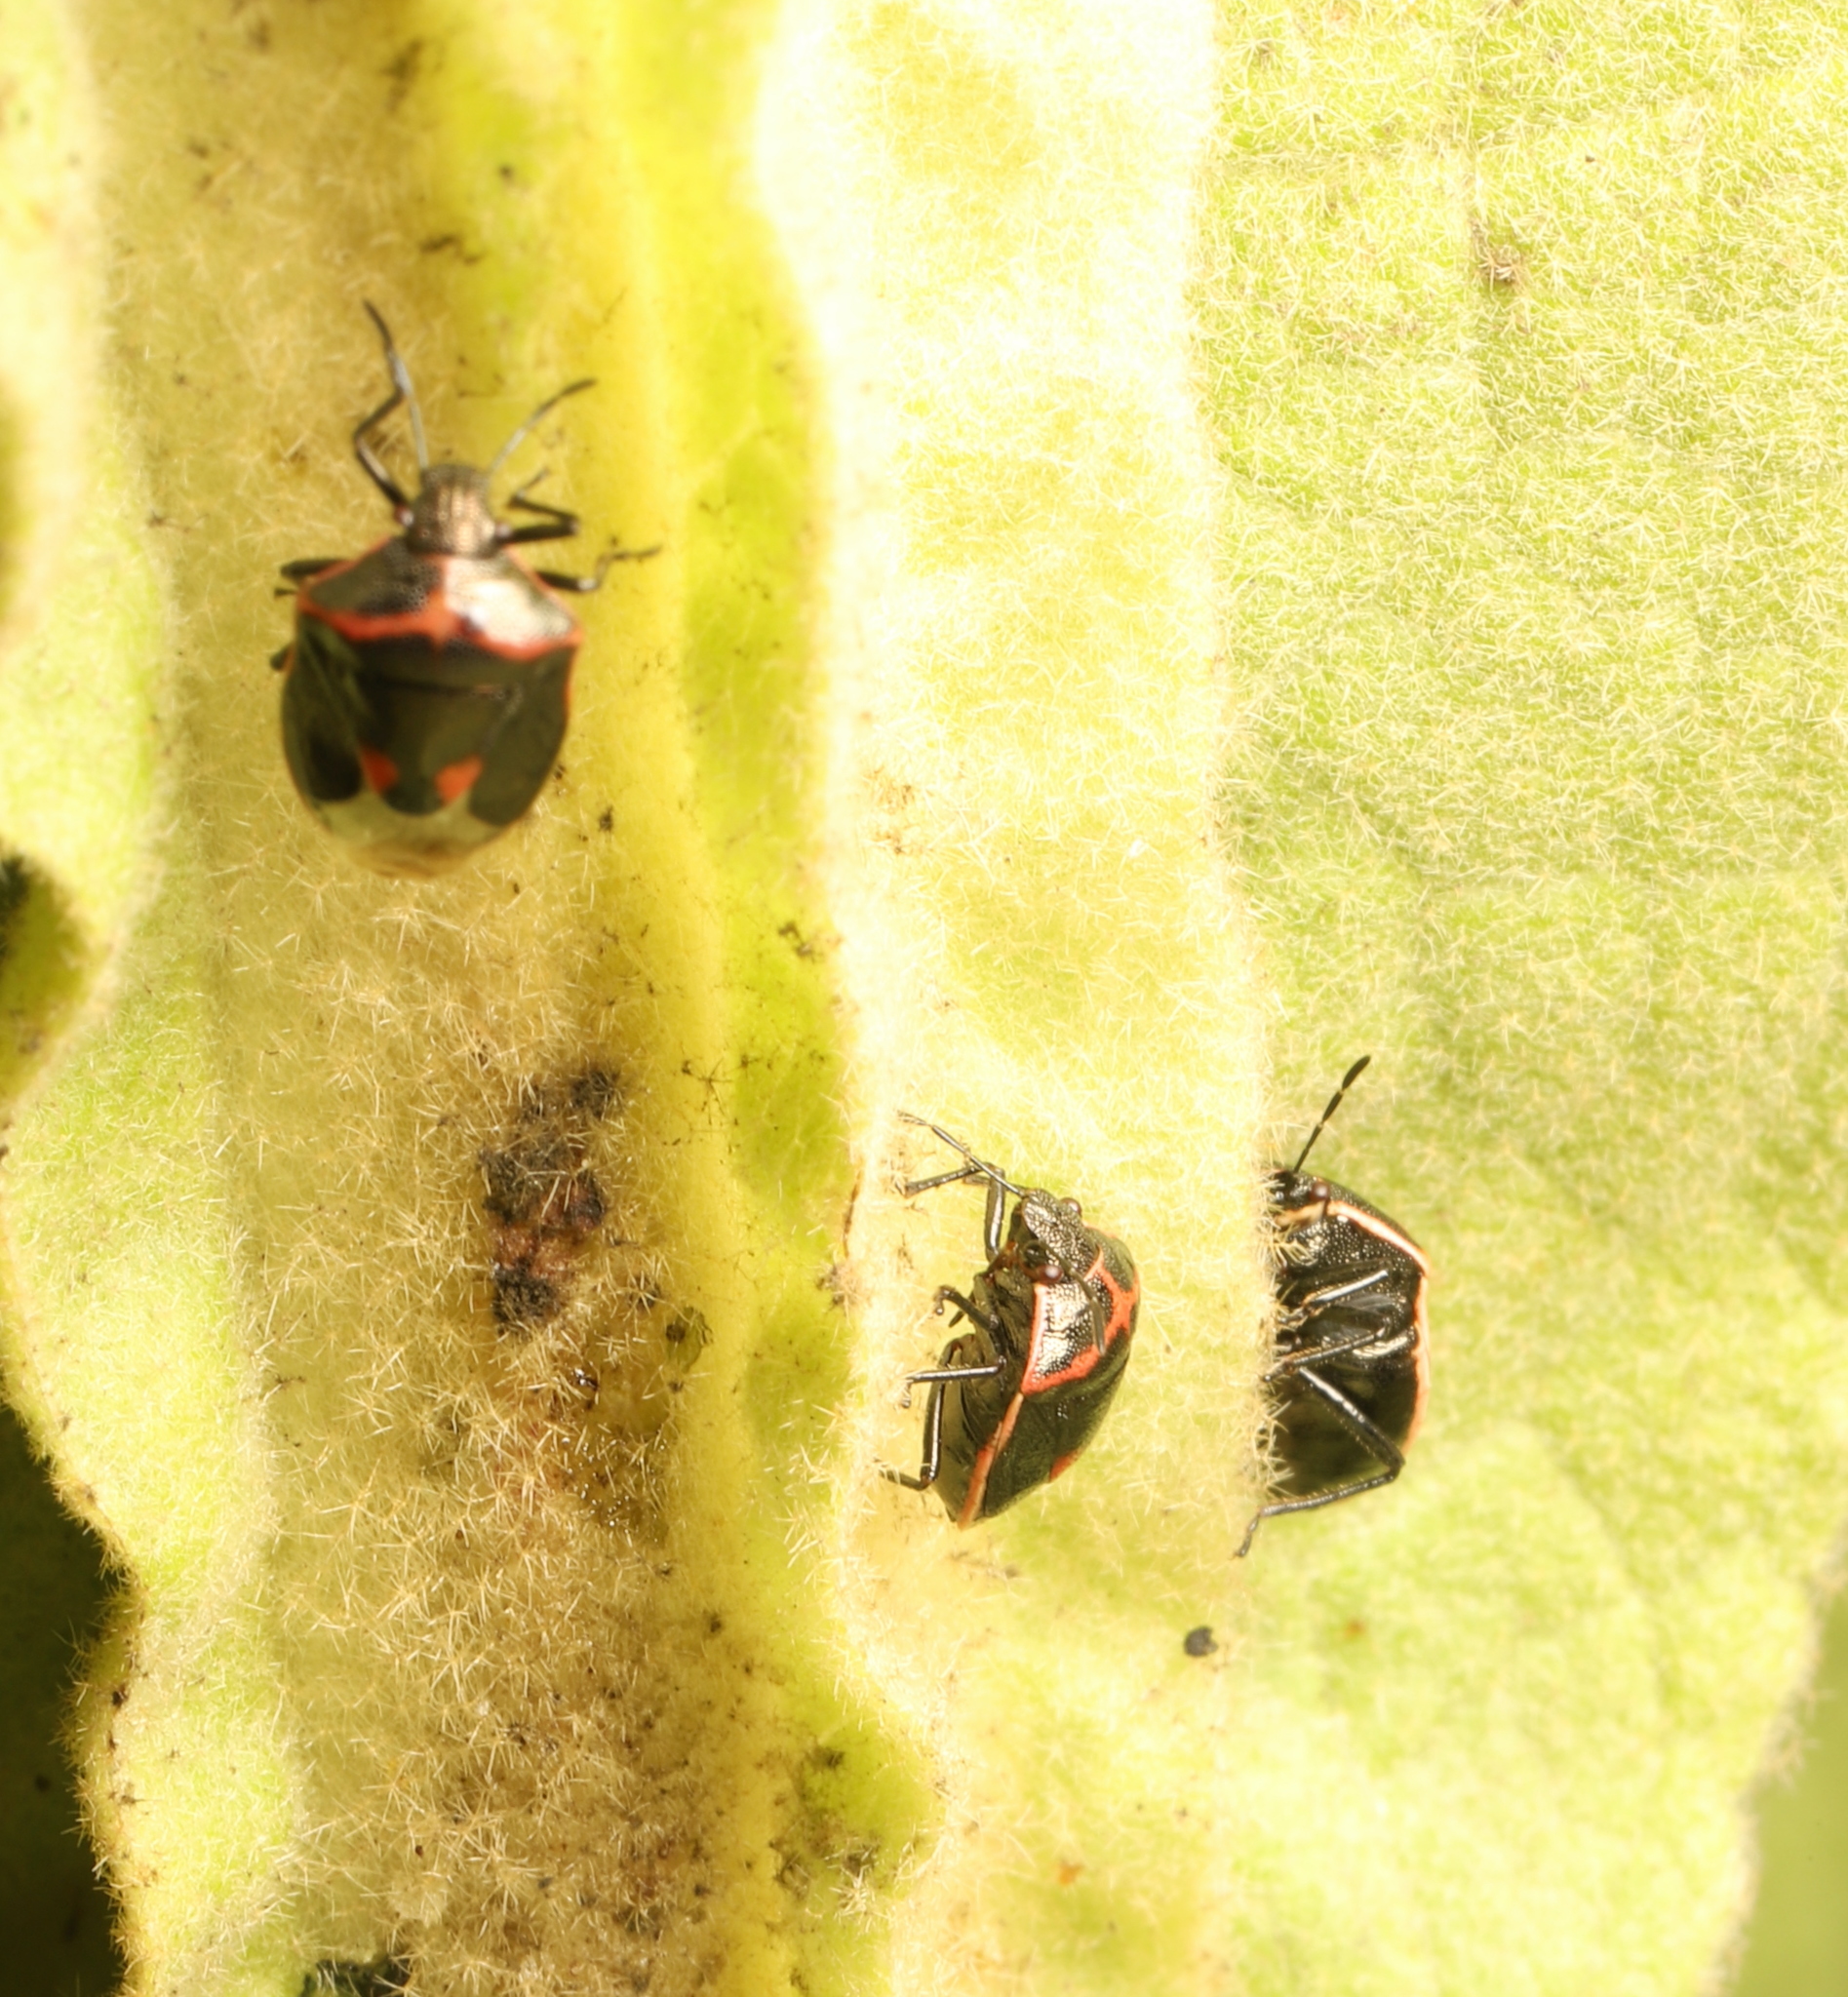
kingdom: Animalia
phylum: Arthropoda
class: Insecta
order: Hemiptera
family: Pentatomidae
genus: Cosmopepla
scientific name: Cosmopepla lintneriana
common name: Twice-stabbed stink bug
